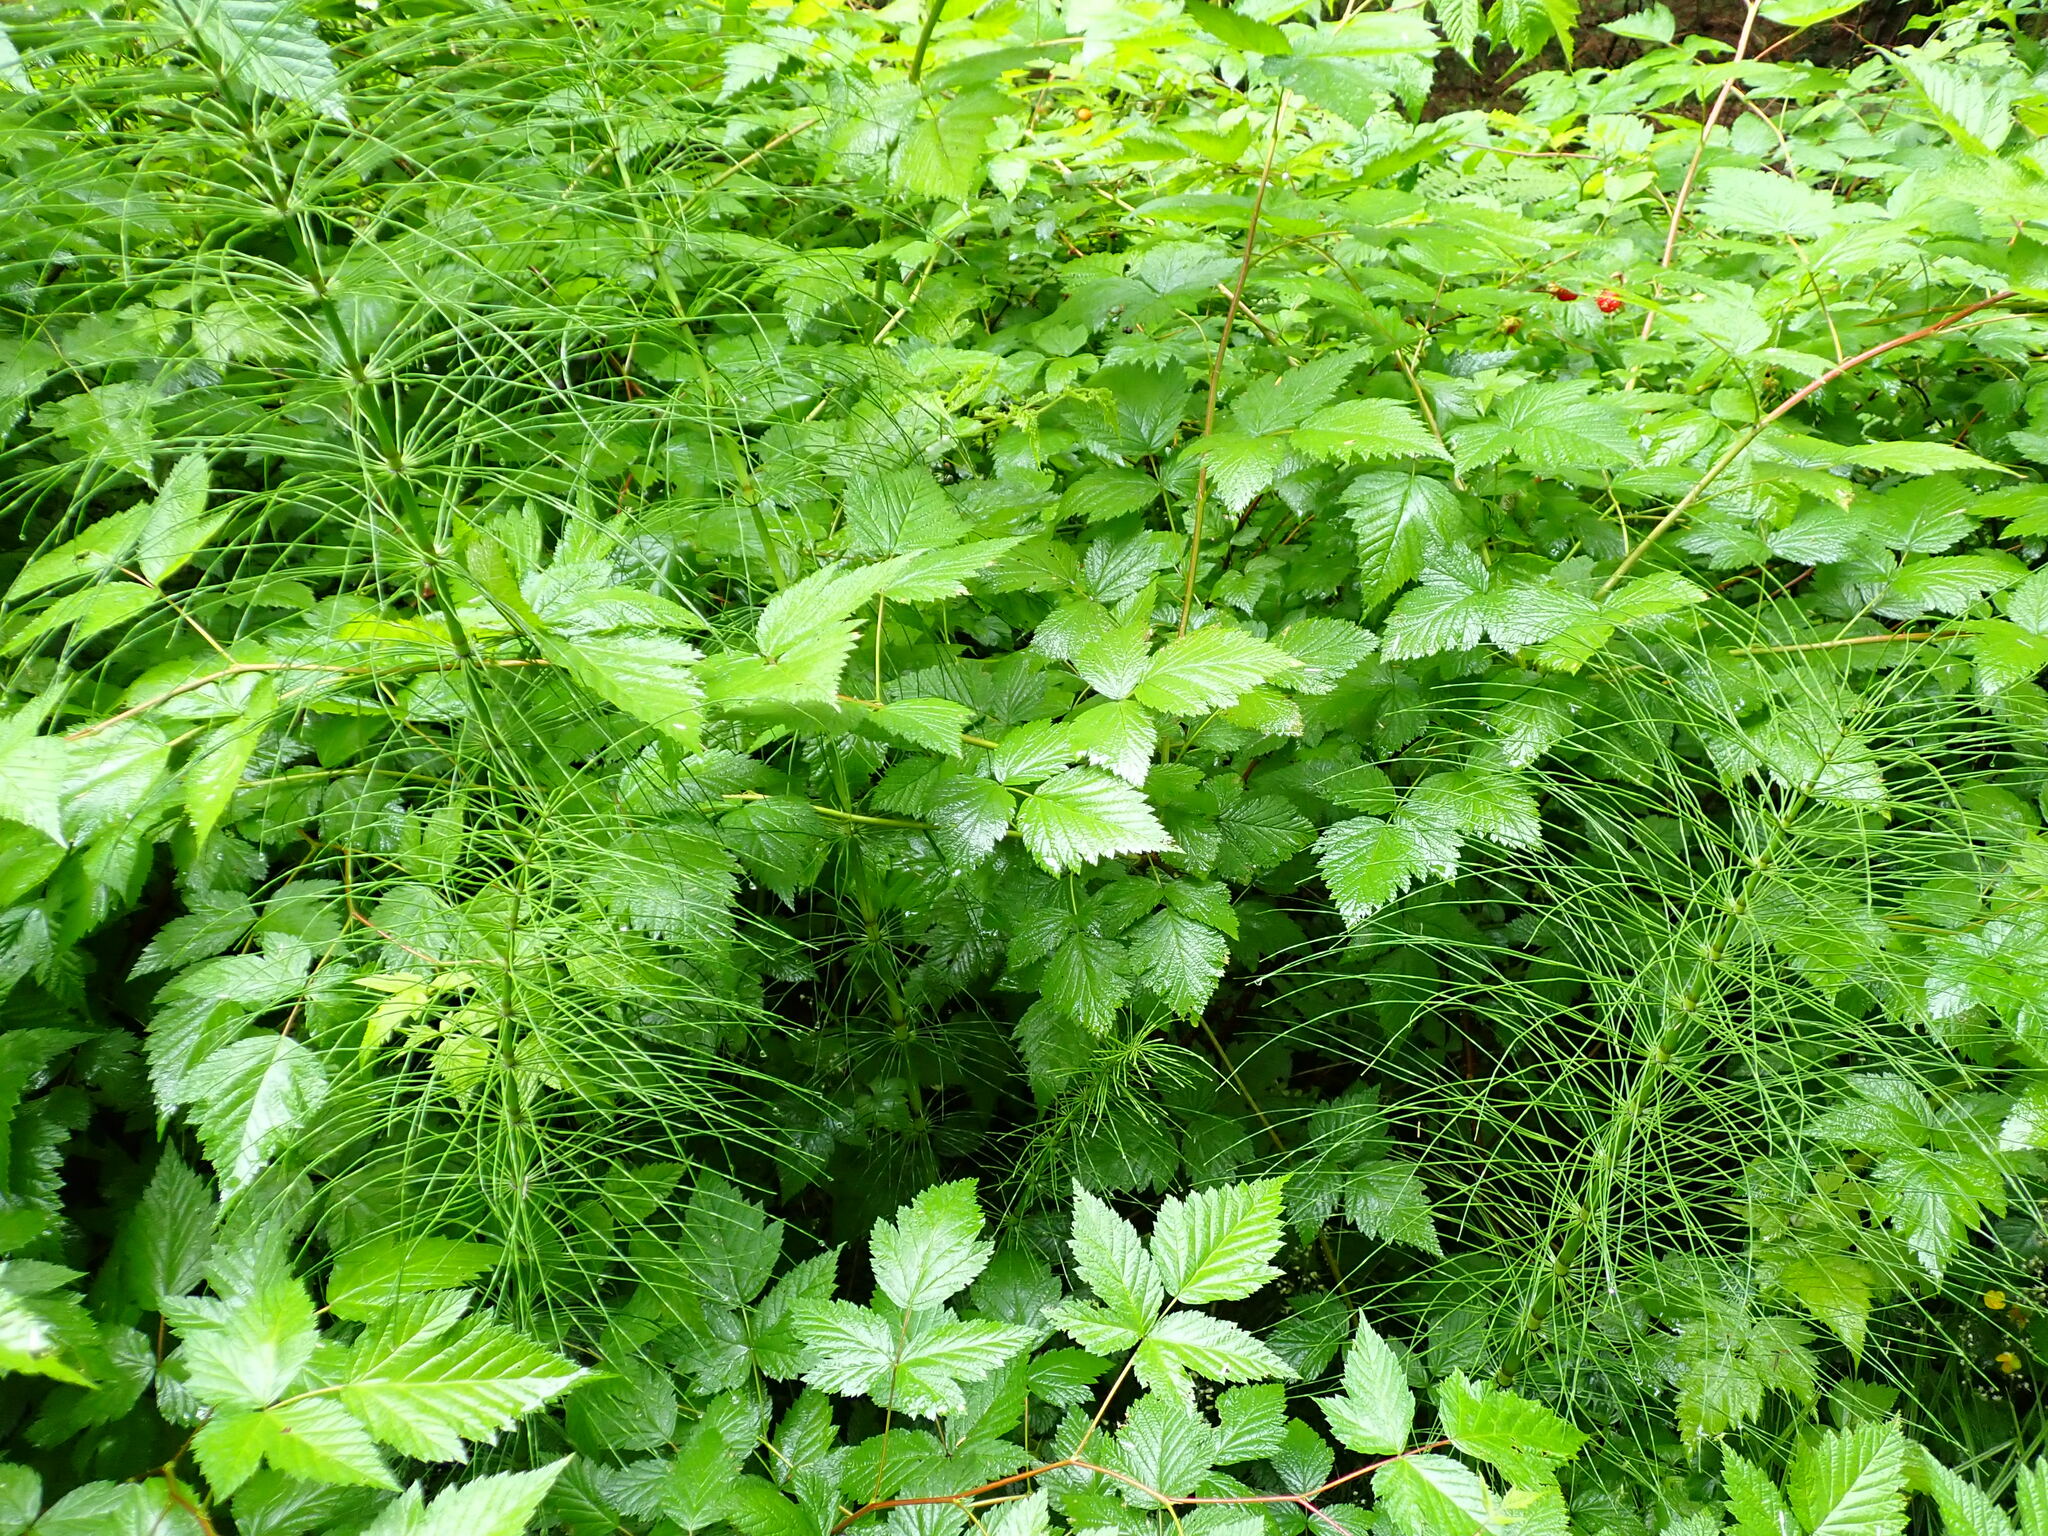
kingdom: Plantae
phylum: Tracheophyta
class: Polypodiopsida
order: Equisetales
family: Equisetaceae
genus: Equisetum
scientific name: Equisetum braunii
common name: Braun's horsetail
